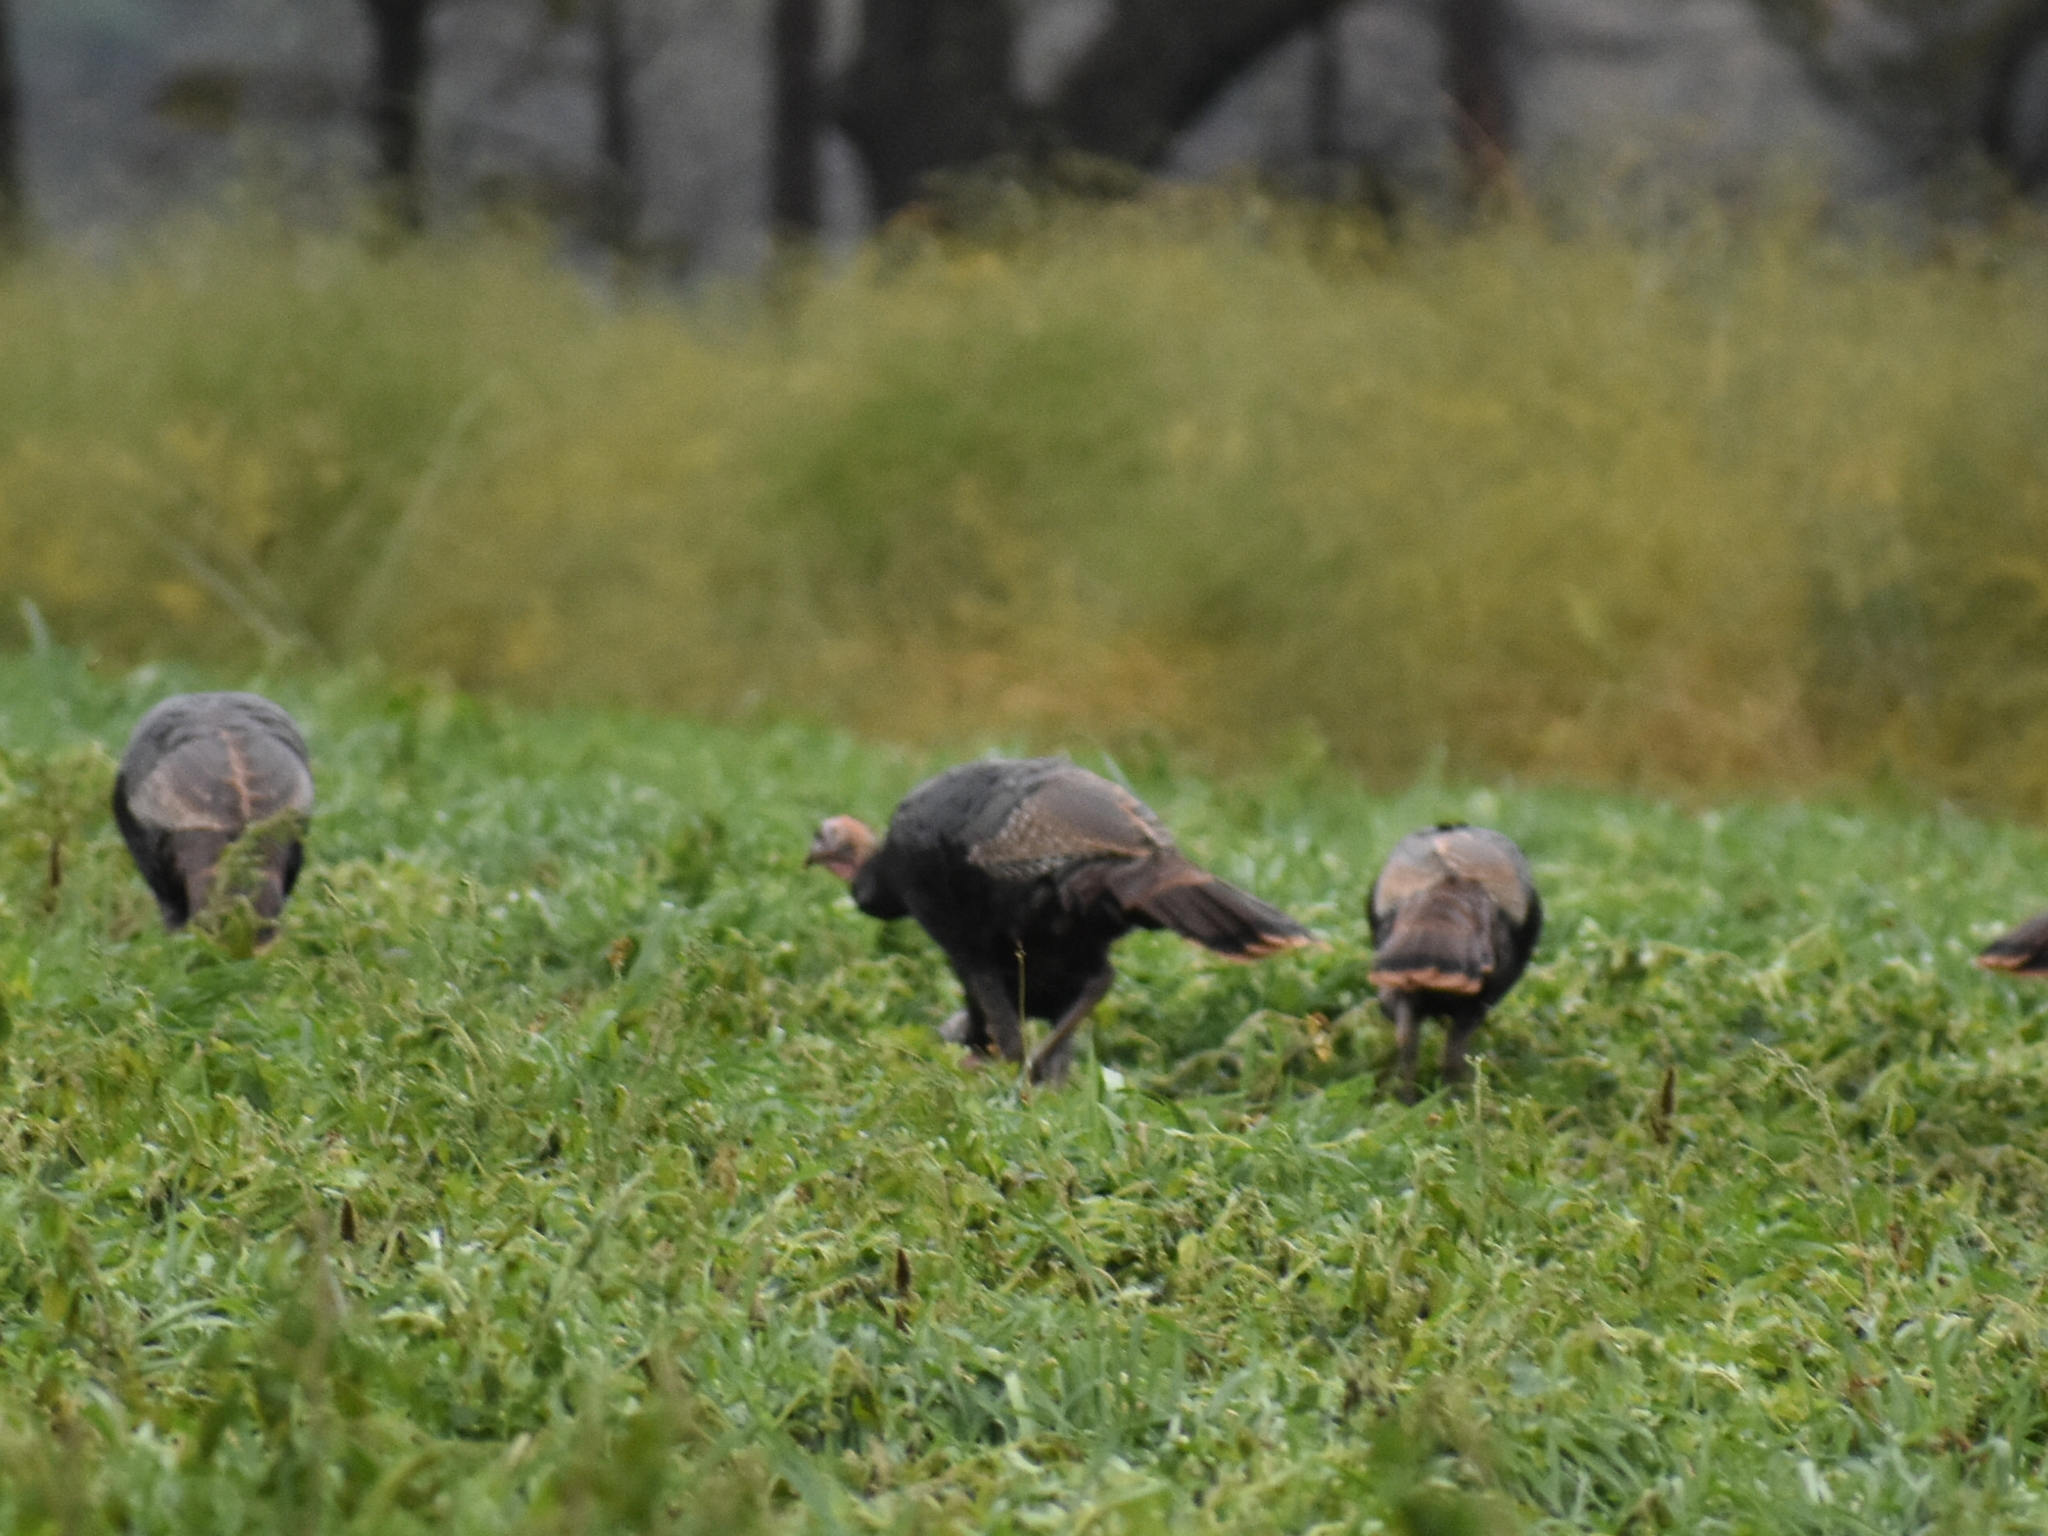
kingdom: Animalia
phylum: Chordata
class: Aves
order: Galliformes
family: Phasianidae
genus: Meleagris
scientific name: Meleagris gallopavo
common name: Wild turkey
